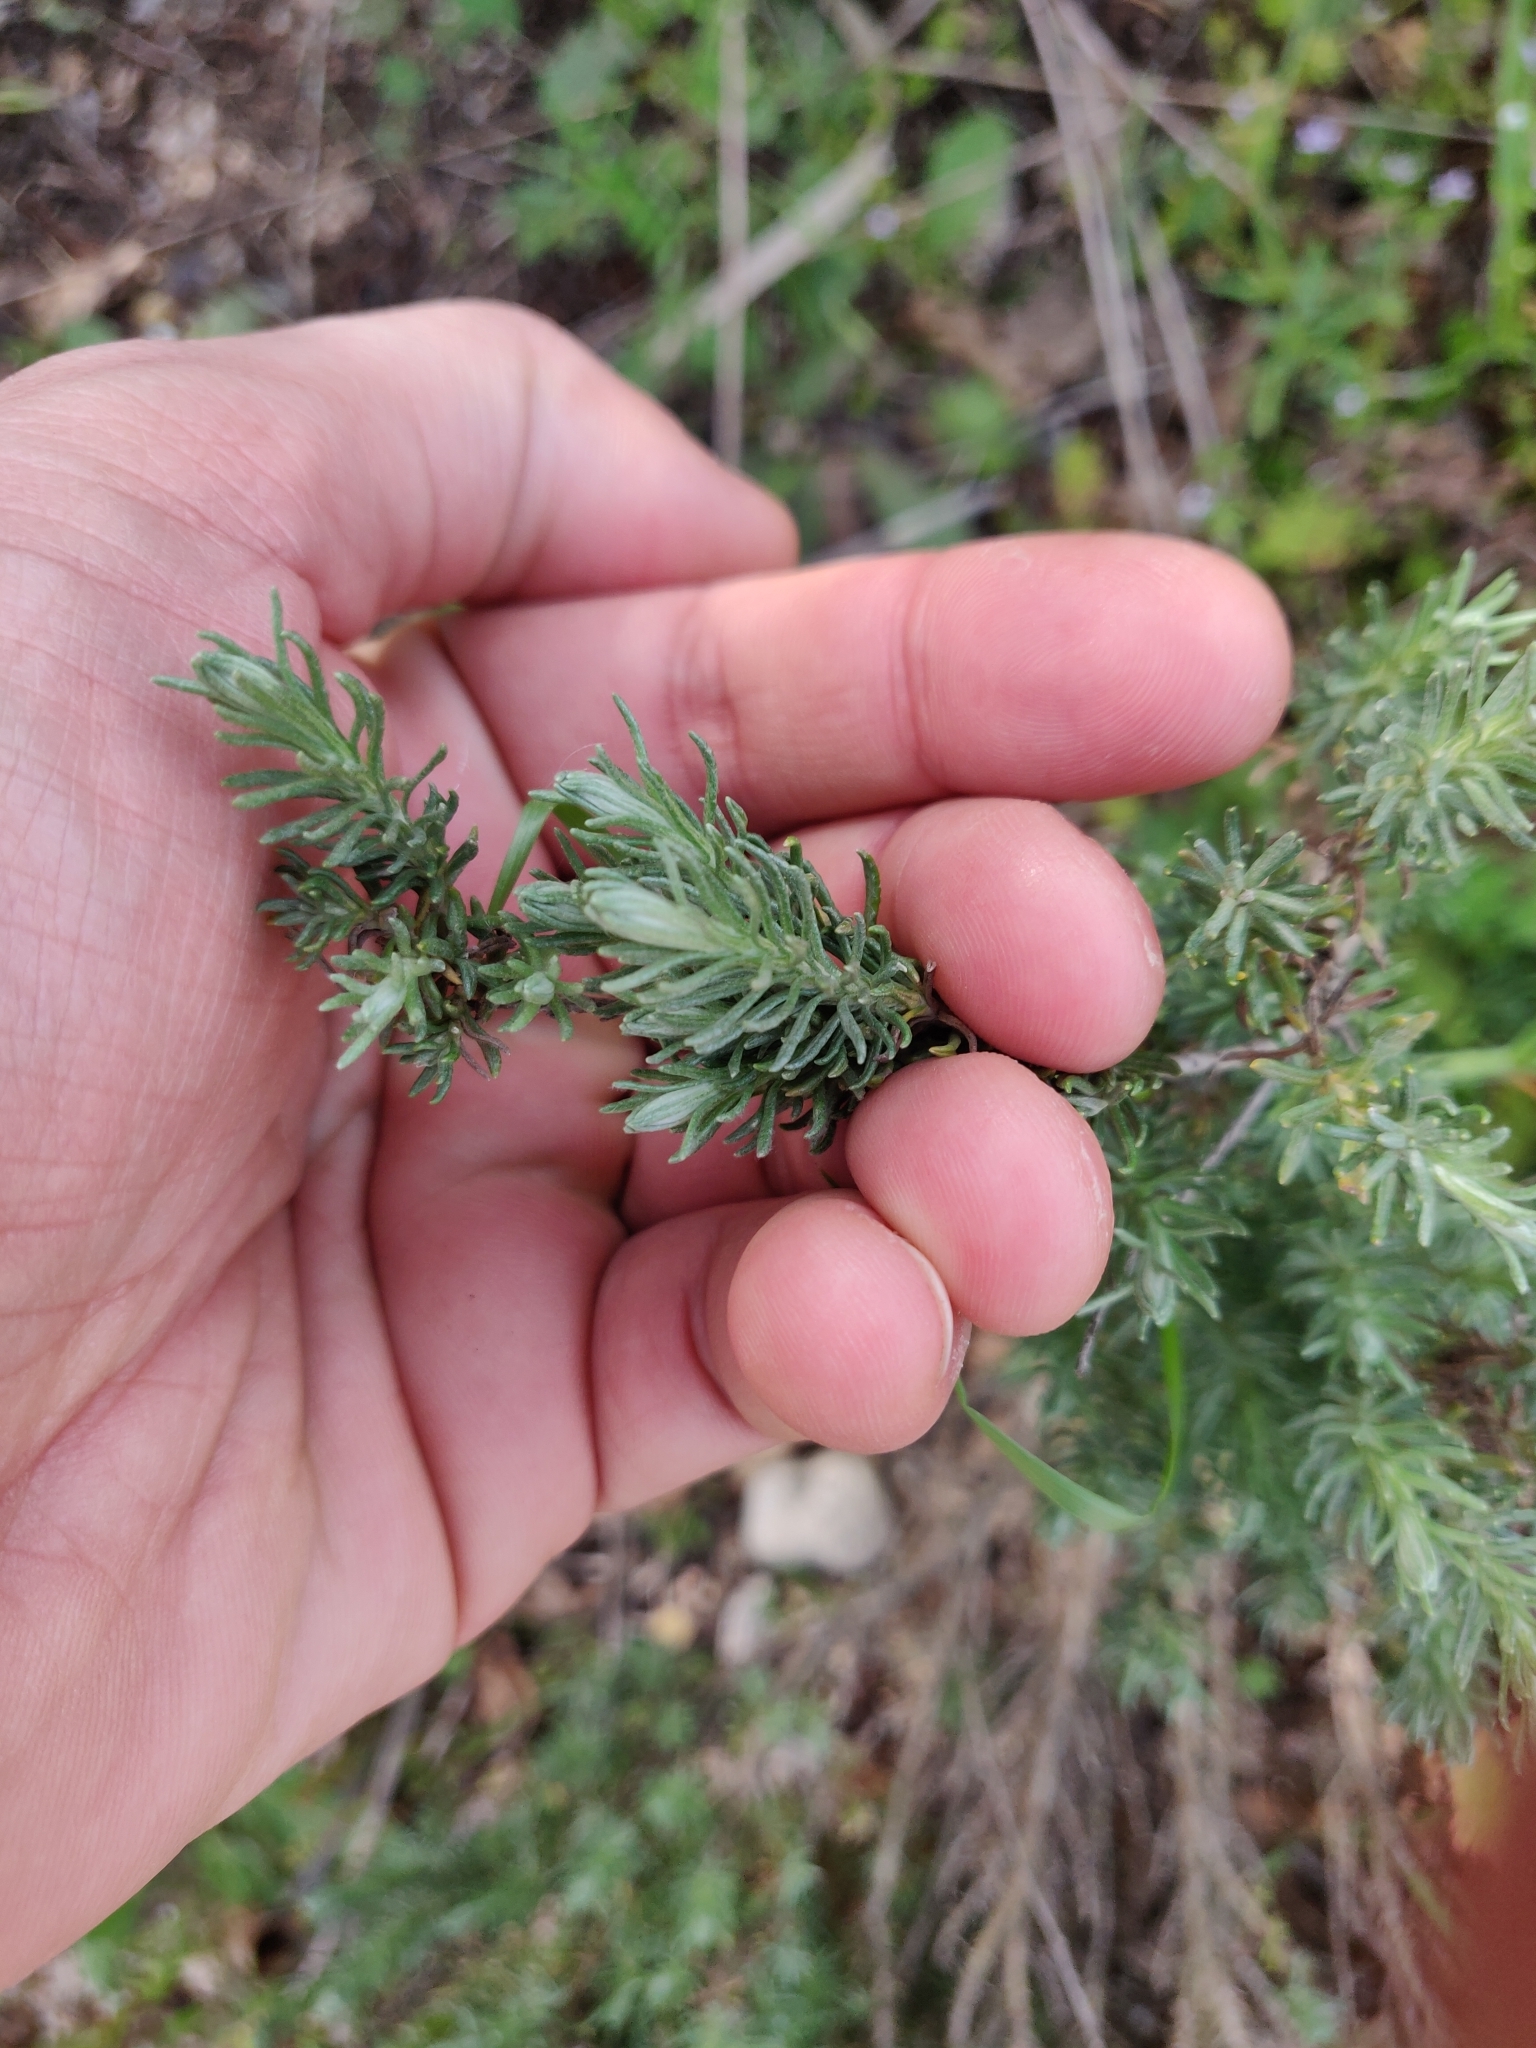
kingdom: Plantae
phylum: Tracheophyta
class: Magnoliopsida
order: Asterales
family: Asteraceae
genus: Helichrysum
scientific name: Helichrysum italicum
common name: Curryplant
